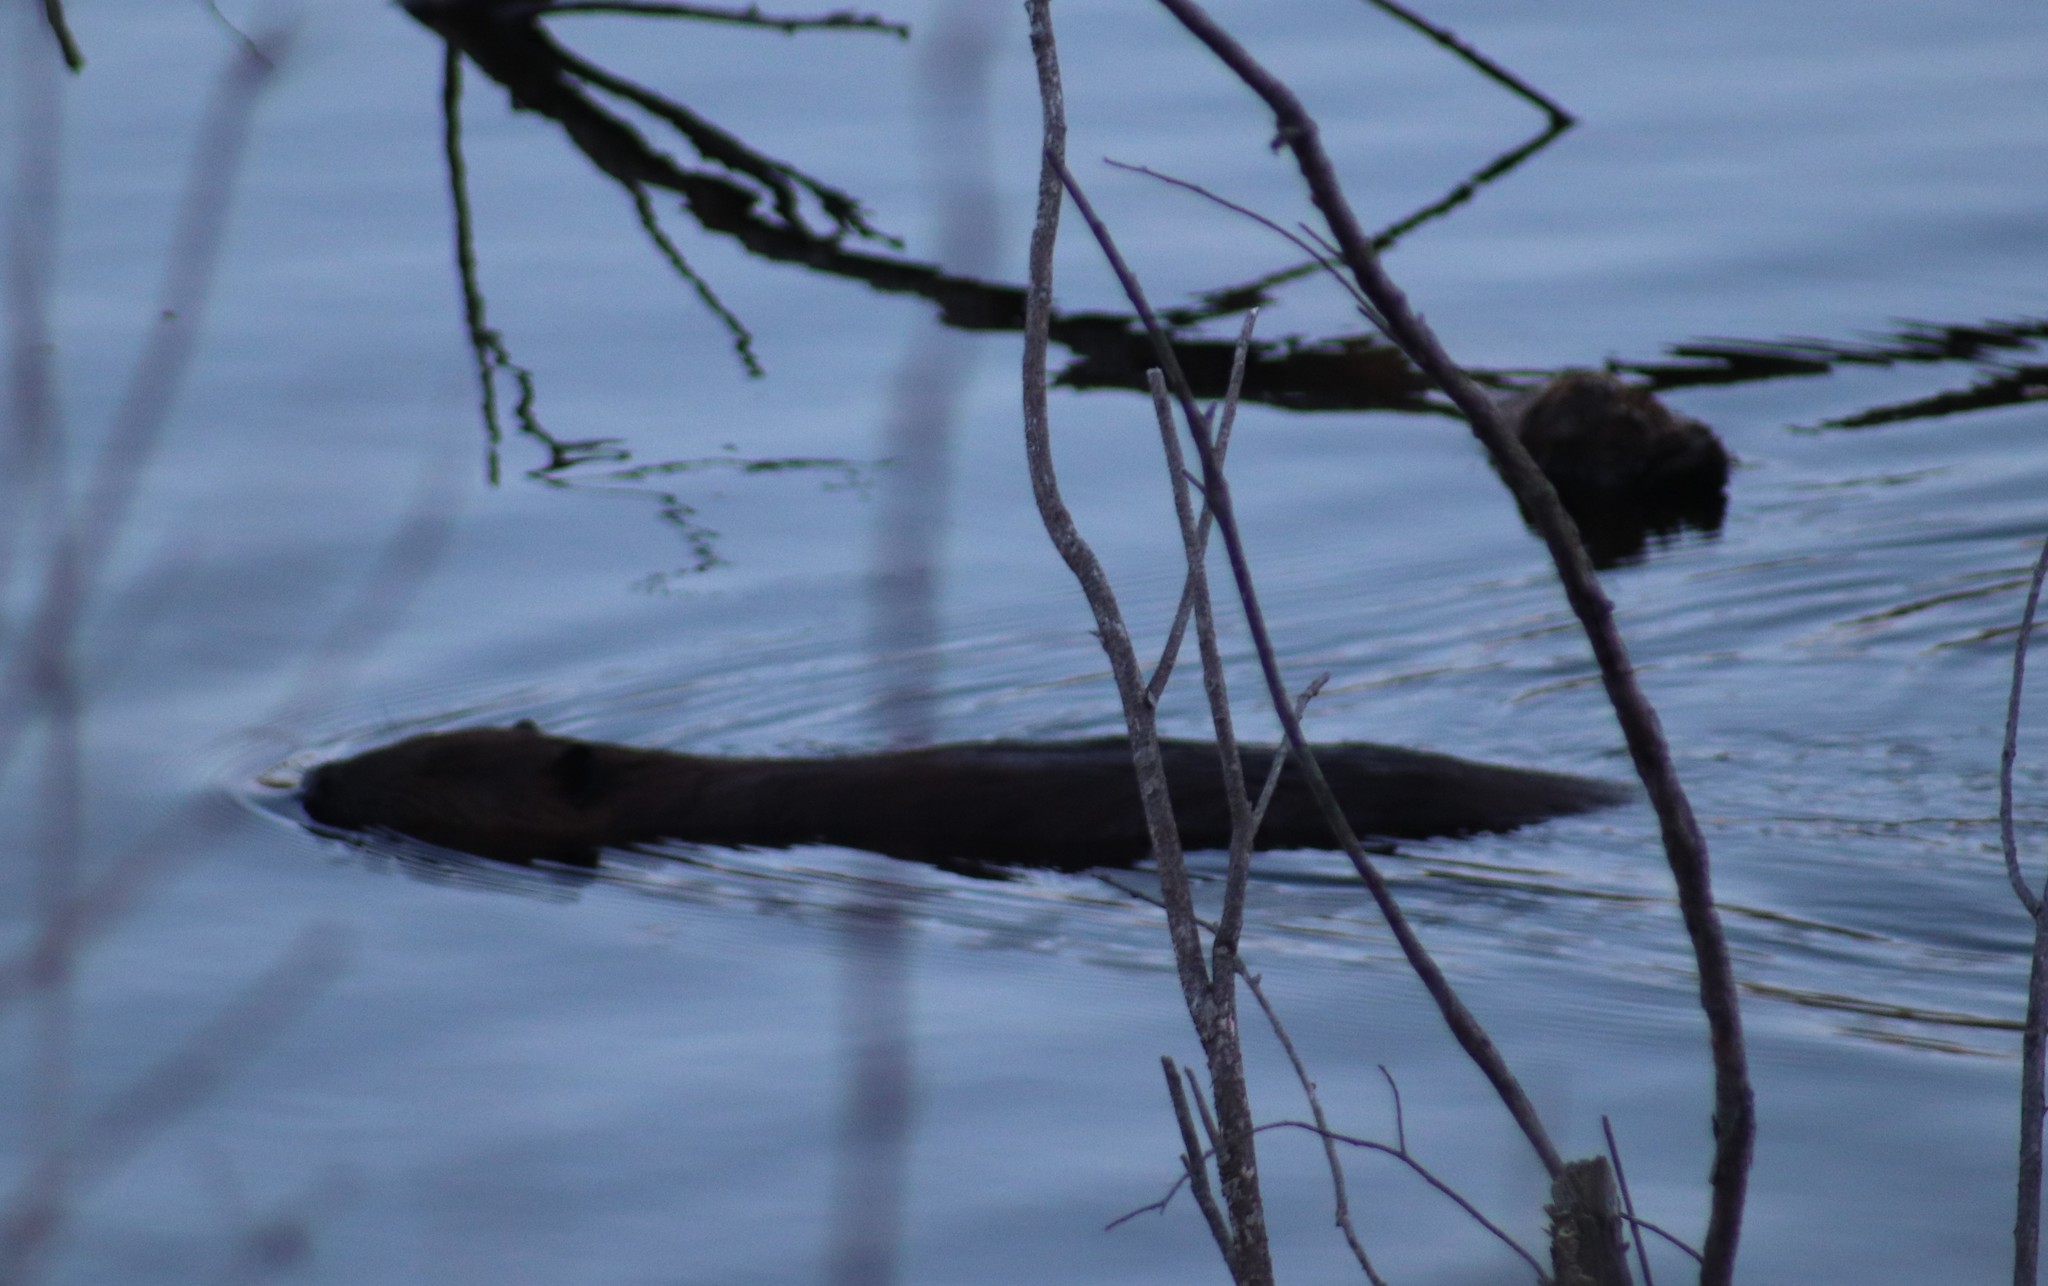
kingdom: Animalia
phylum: Chordata
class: Mammalia
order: Rodentia
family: Castoridae
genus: Castor
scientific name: Castor canadensis
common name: American beaver
